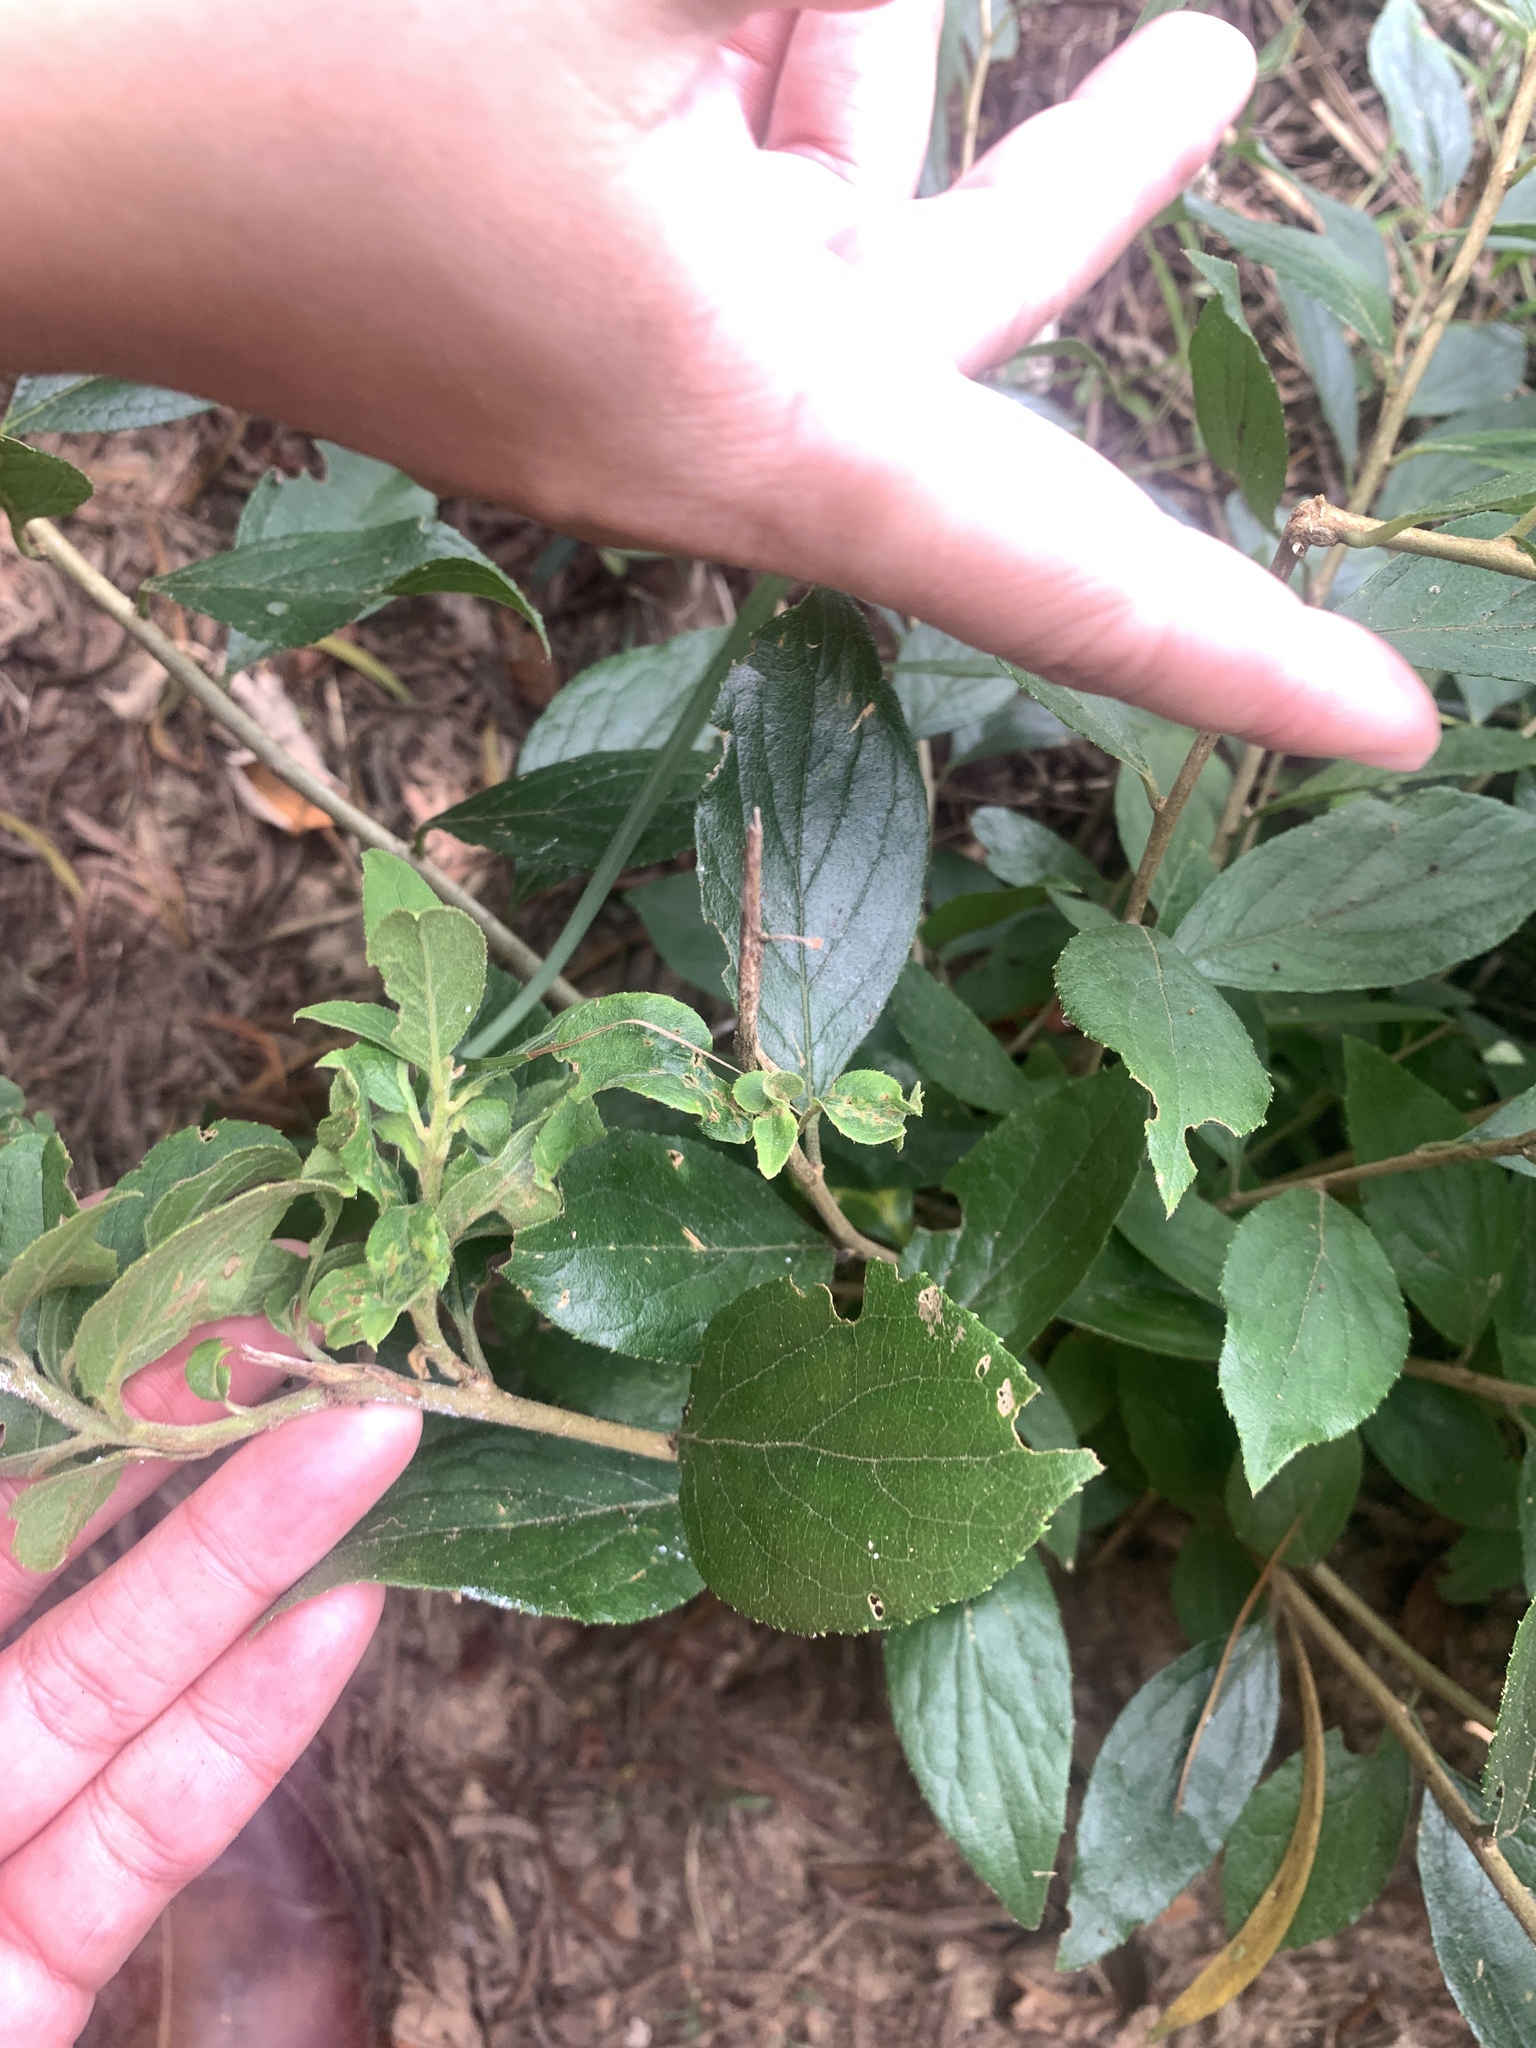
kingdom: Plantae
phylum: Tracheophyta
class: Magnoliopsida
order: Ericales
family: Symplocaceae
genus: Symplocos
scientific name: Symplocos paniculata
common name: Sapphire-berry
